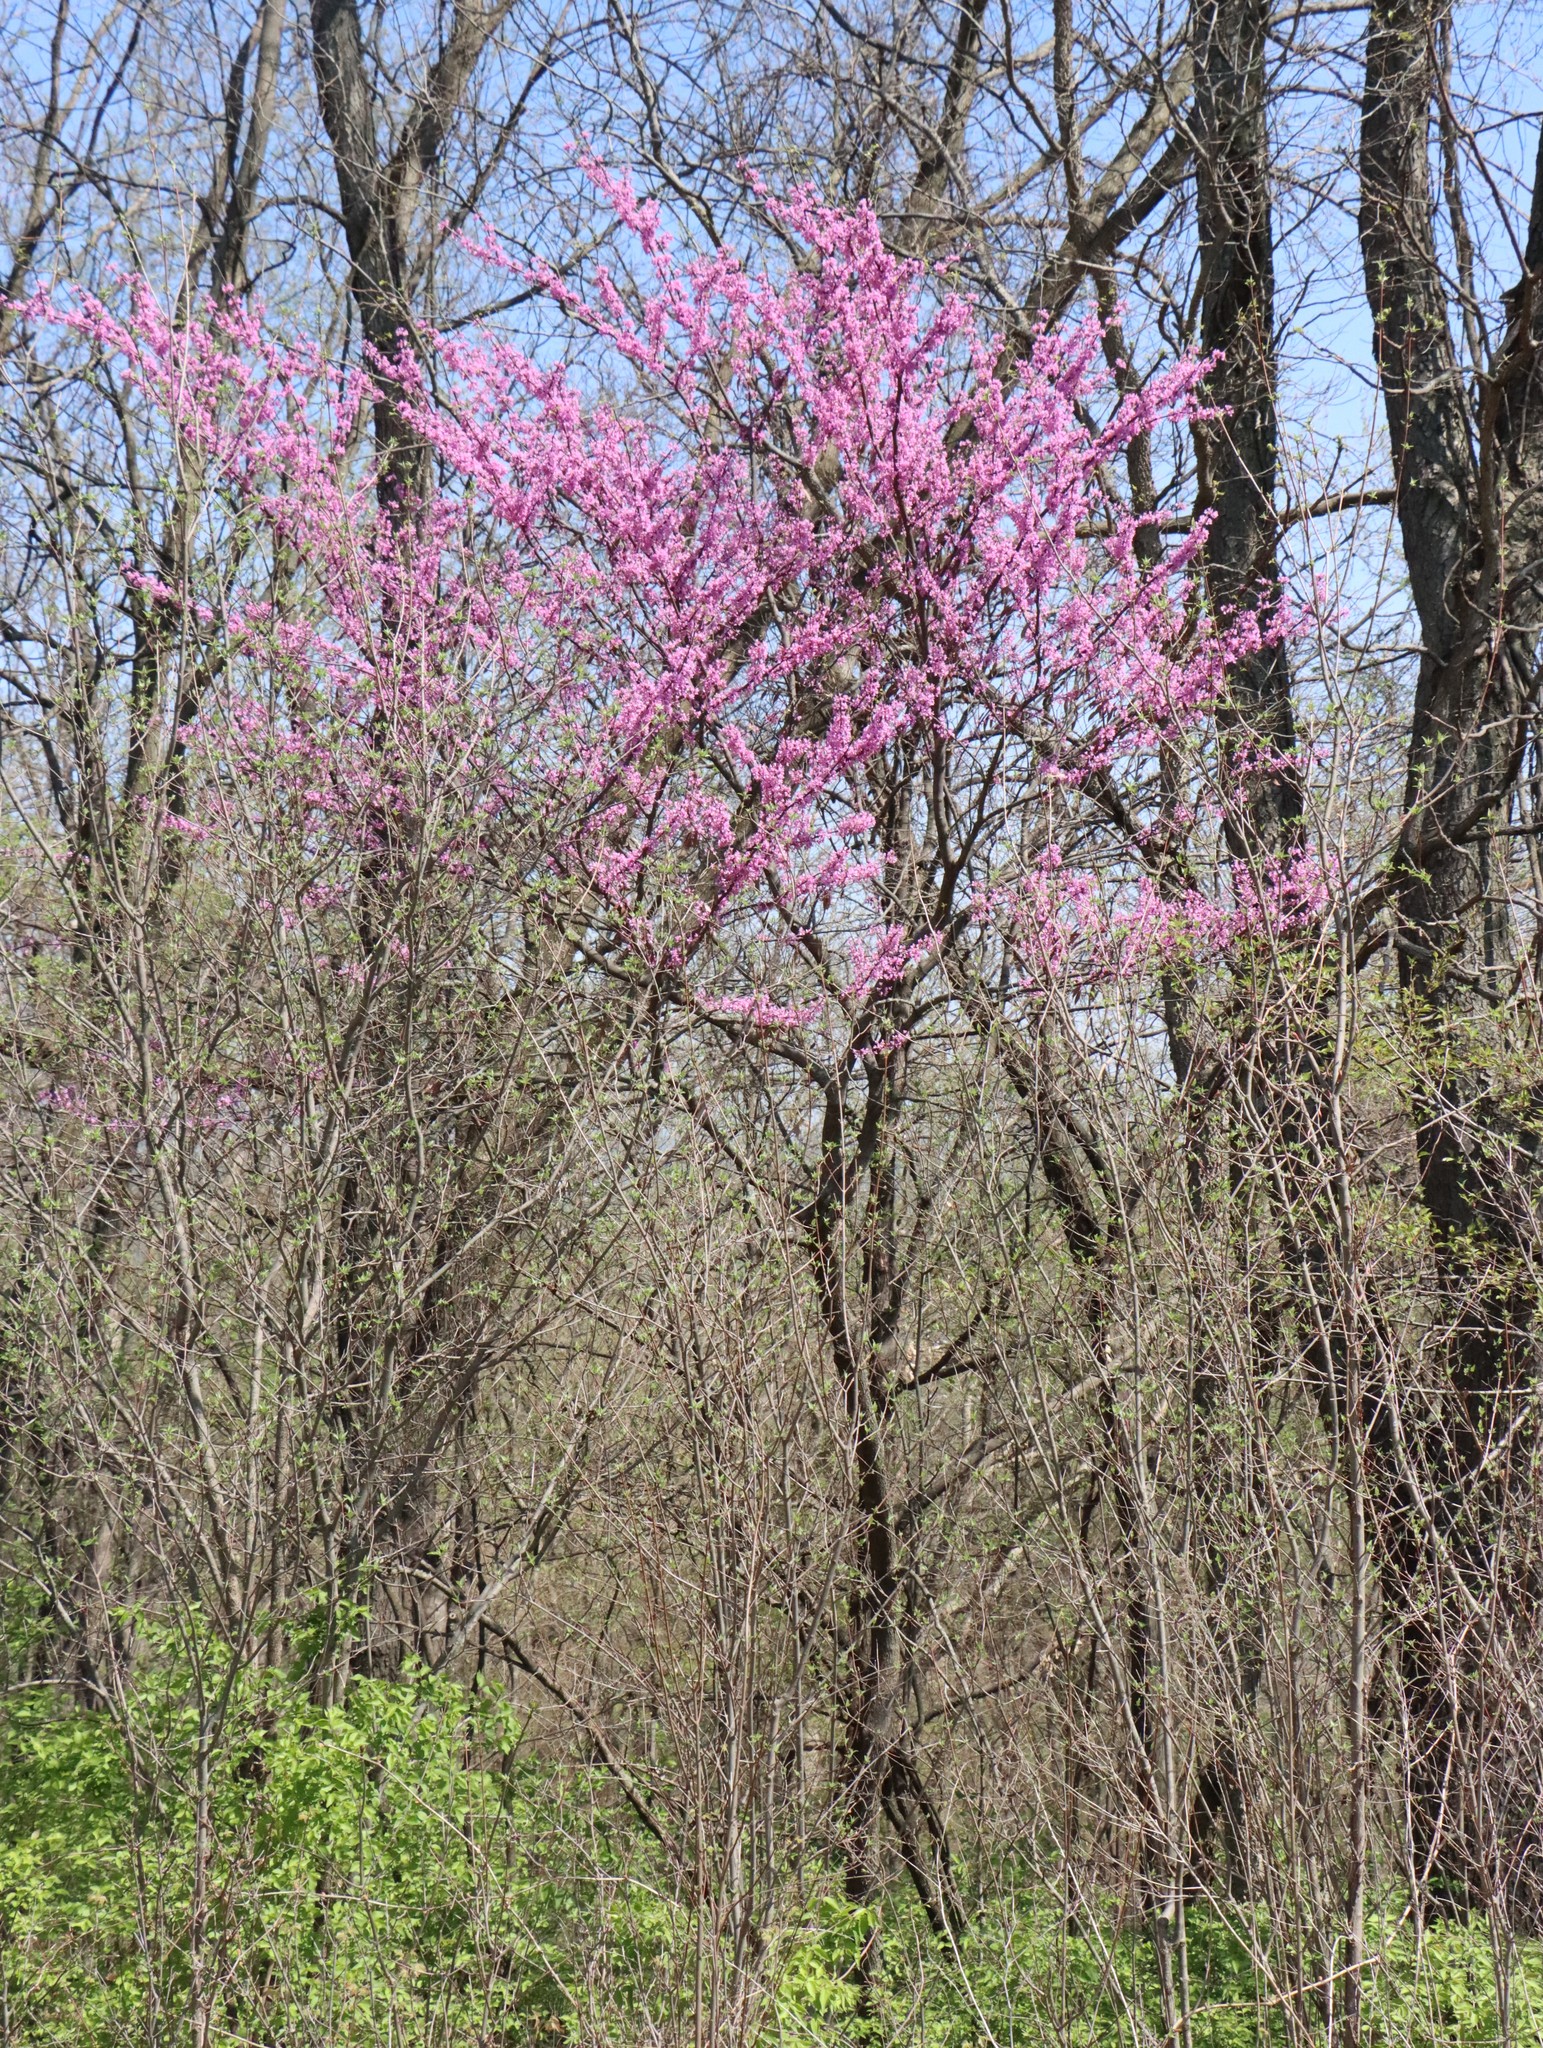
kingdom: Plantae
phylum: Tracheophyta
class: Magnoliopsida
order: Fabales
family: Fabaceae
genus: Cercis
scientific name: Cercis canadensis
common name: Eastern redbud
